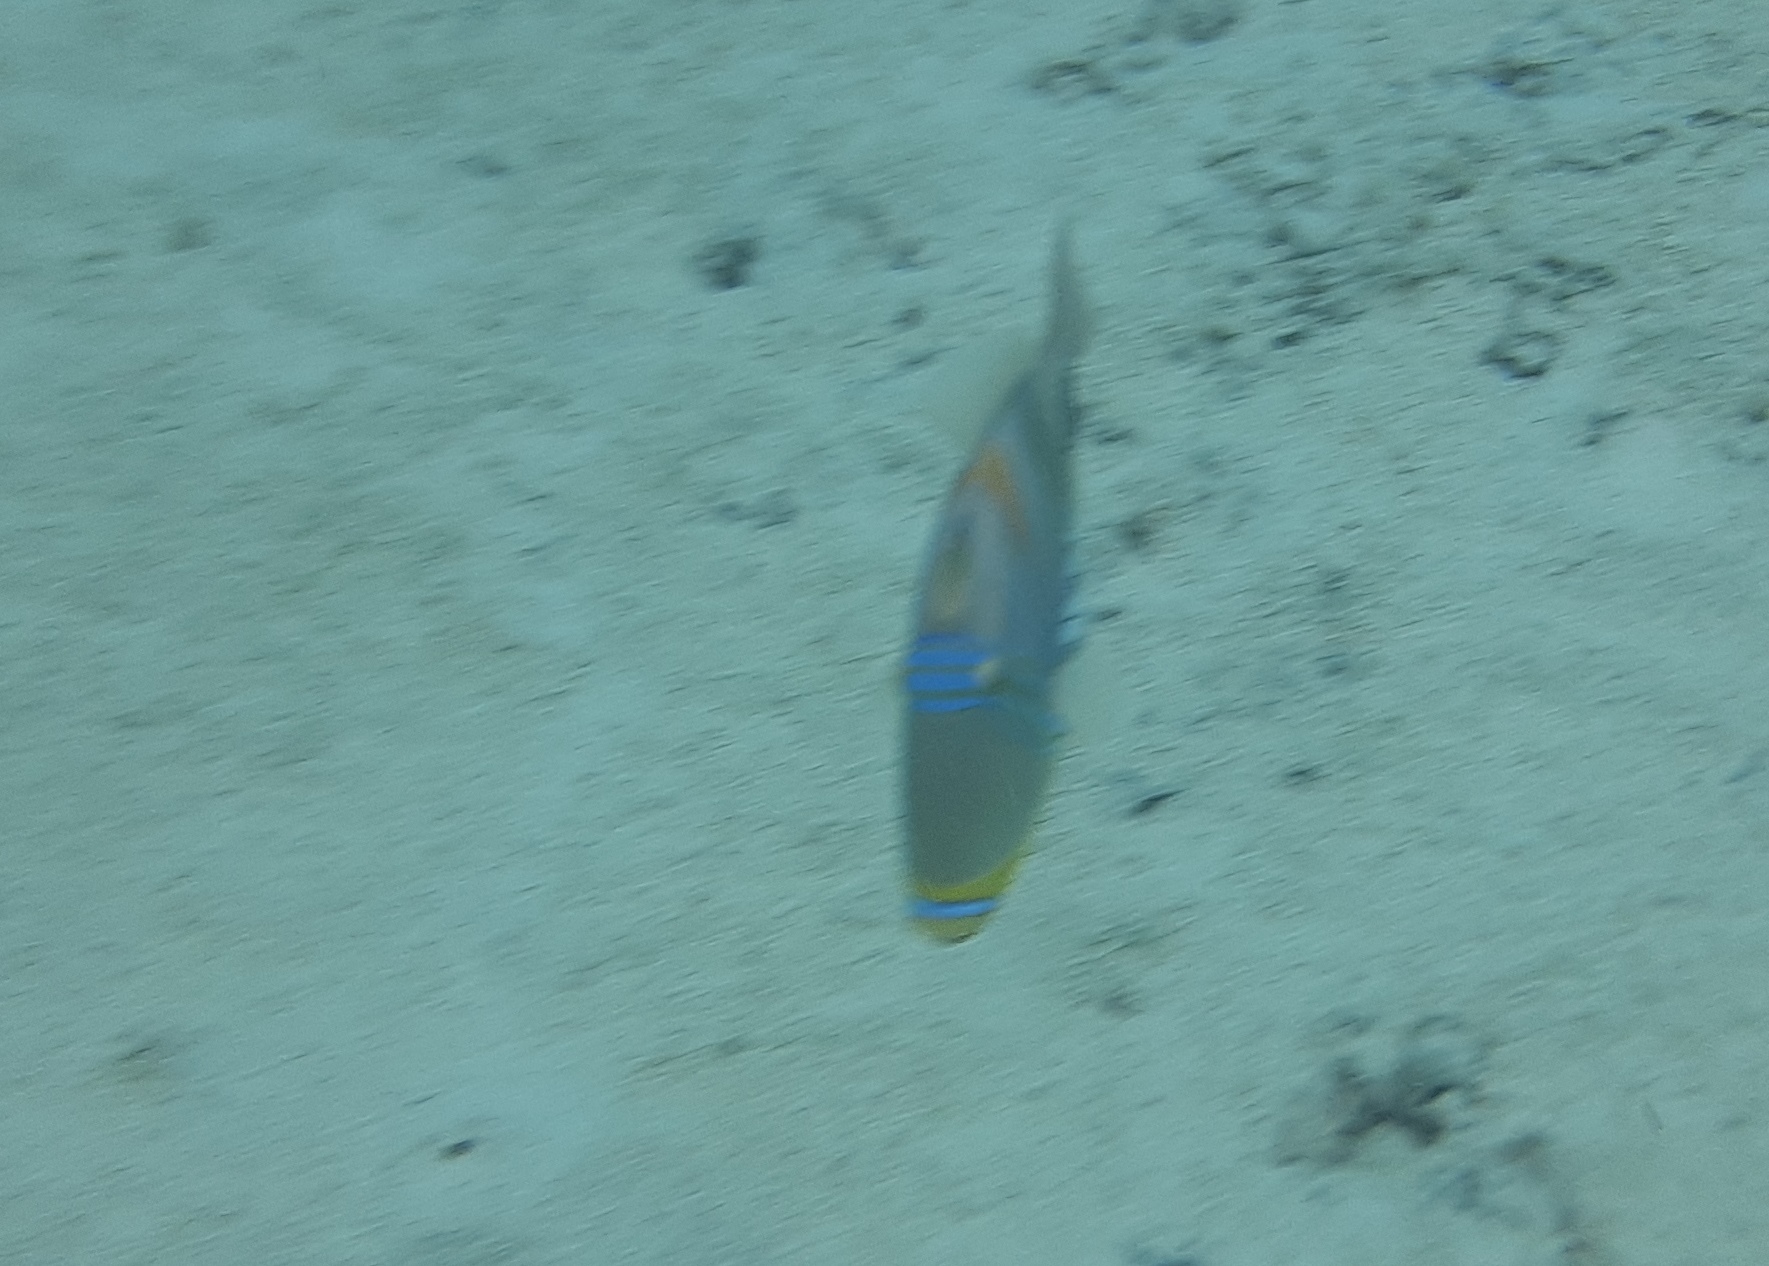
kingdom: Animalia
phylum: Chordata
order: Tetraodontiformes
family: Balistidae
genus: Rhinecanthus
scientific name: Rhinecanthus aculeatus
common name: White-banded triggerfish
